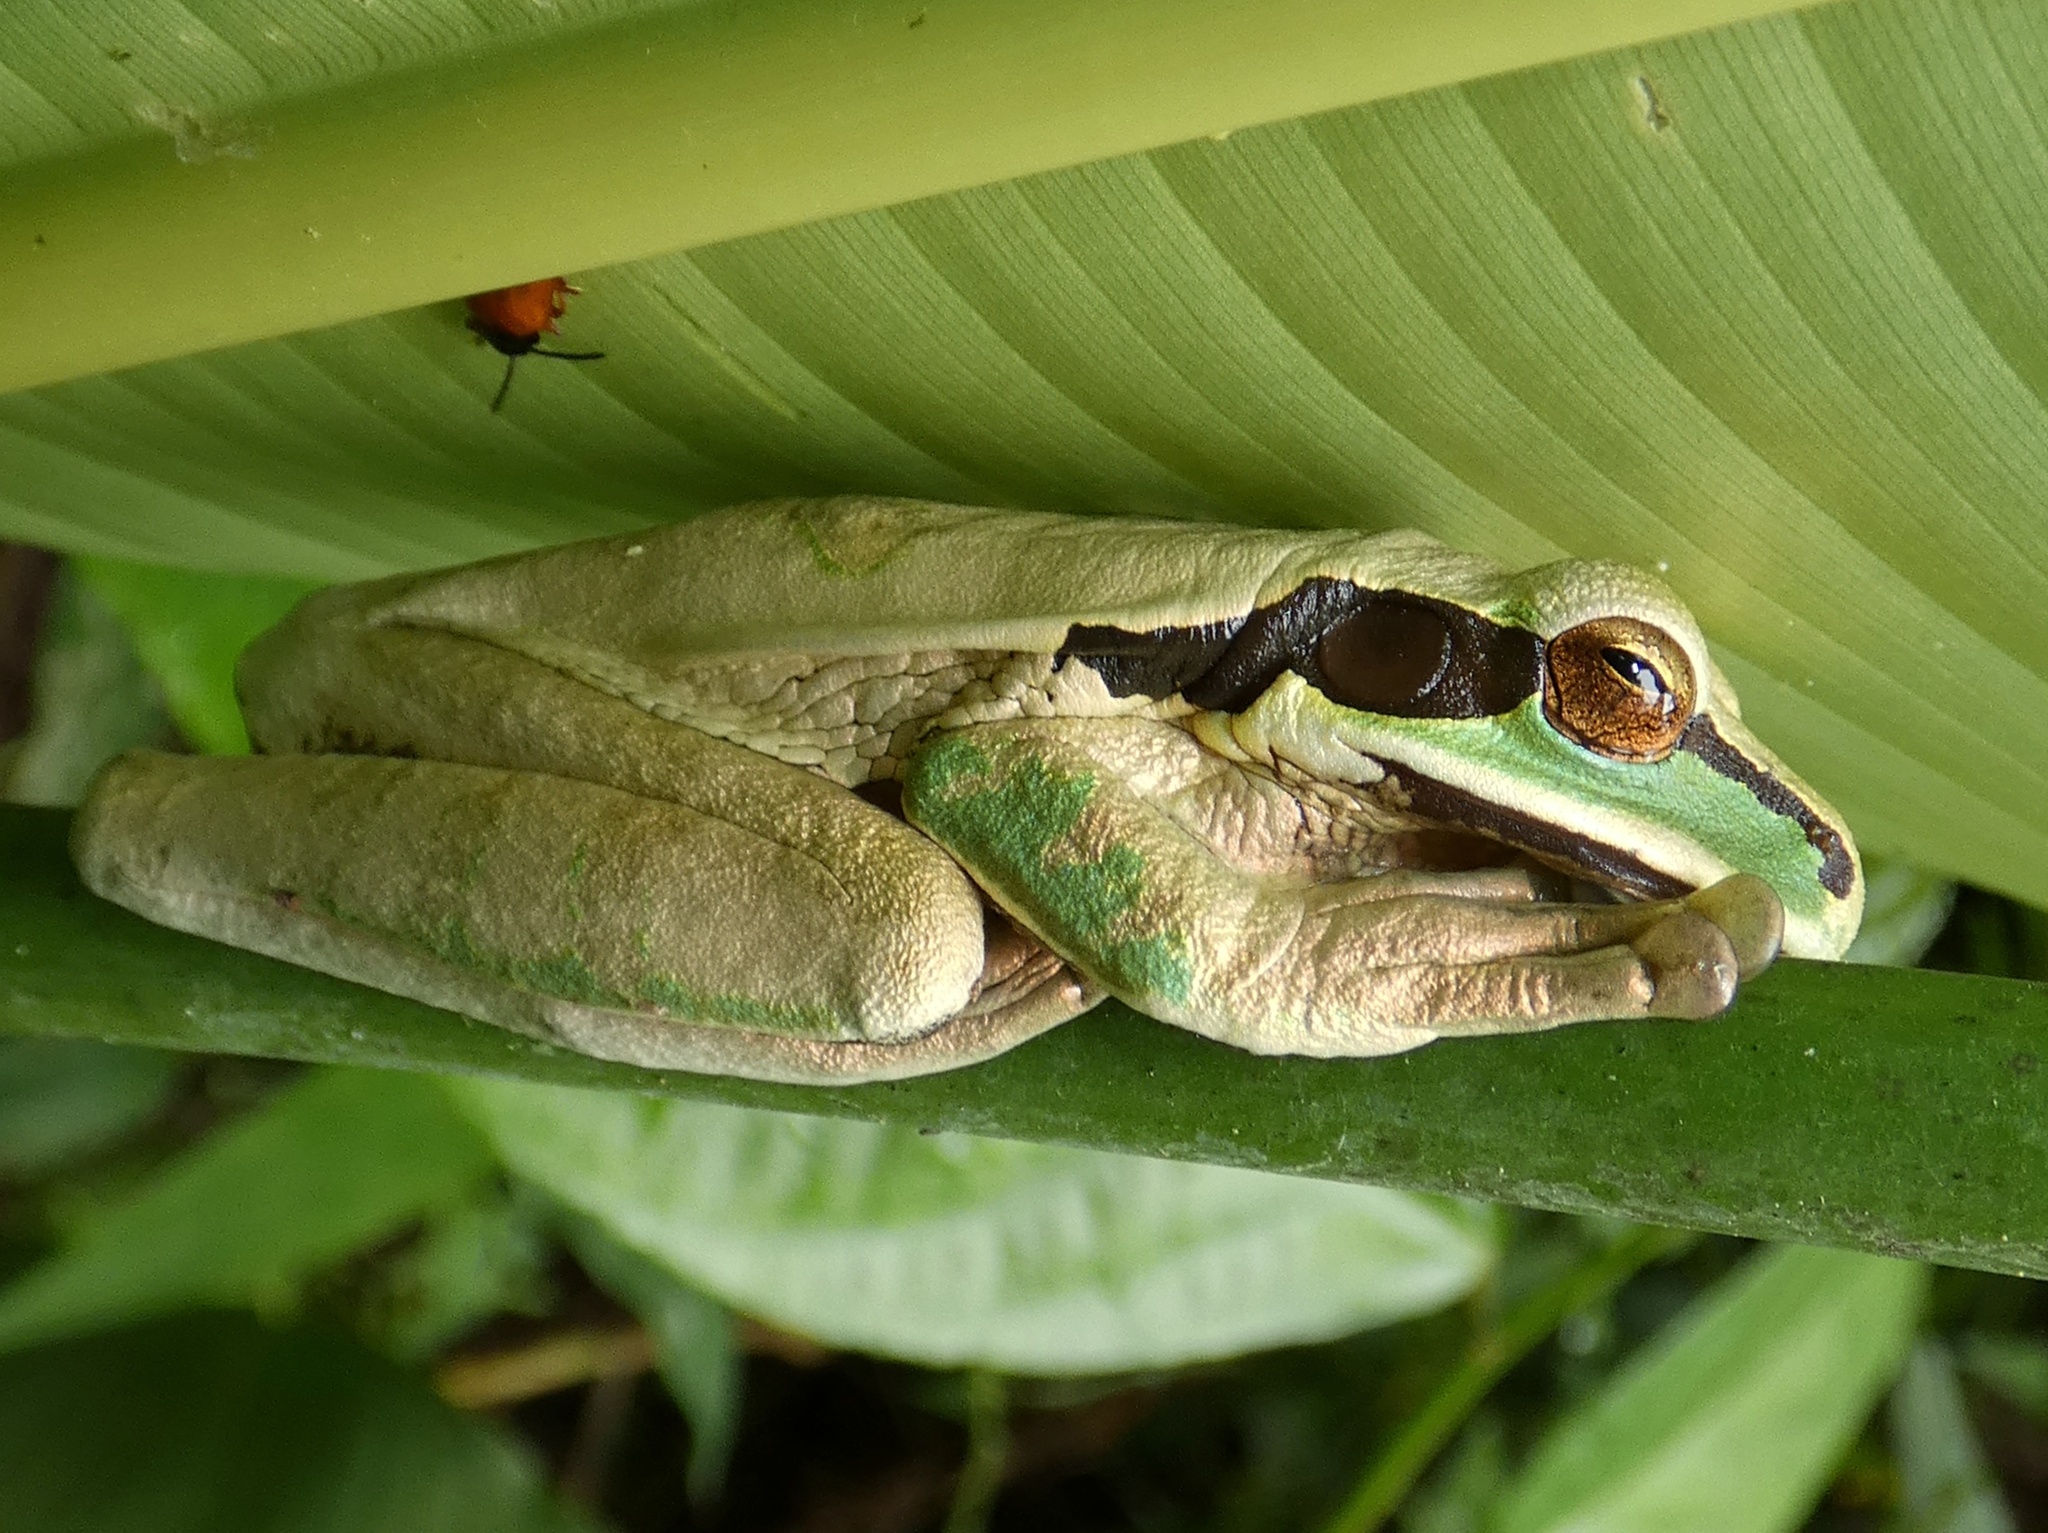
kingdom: Animalia
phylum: Chordata
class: Amphibia
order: Anura
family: Hylidae
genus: Smilisca
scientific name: Smilisca phaeota
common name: Central american smilisca
